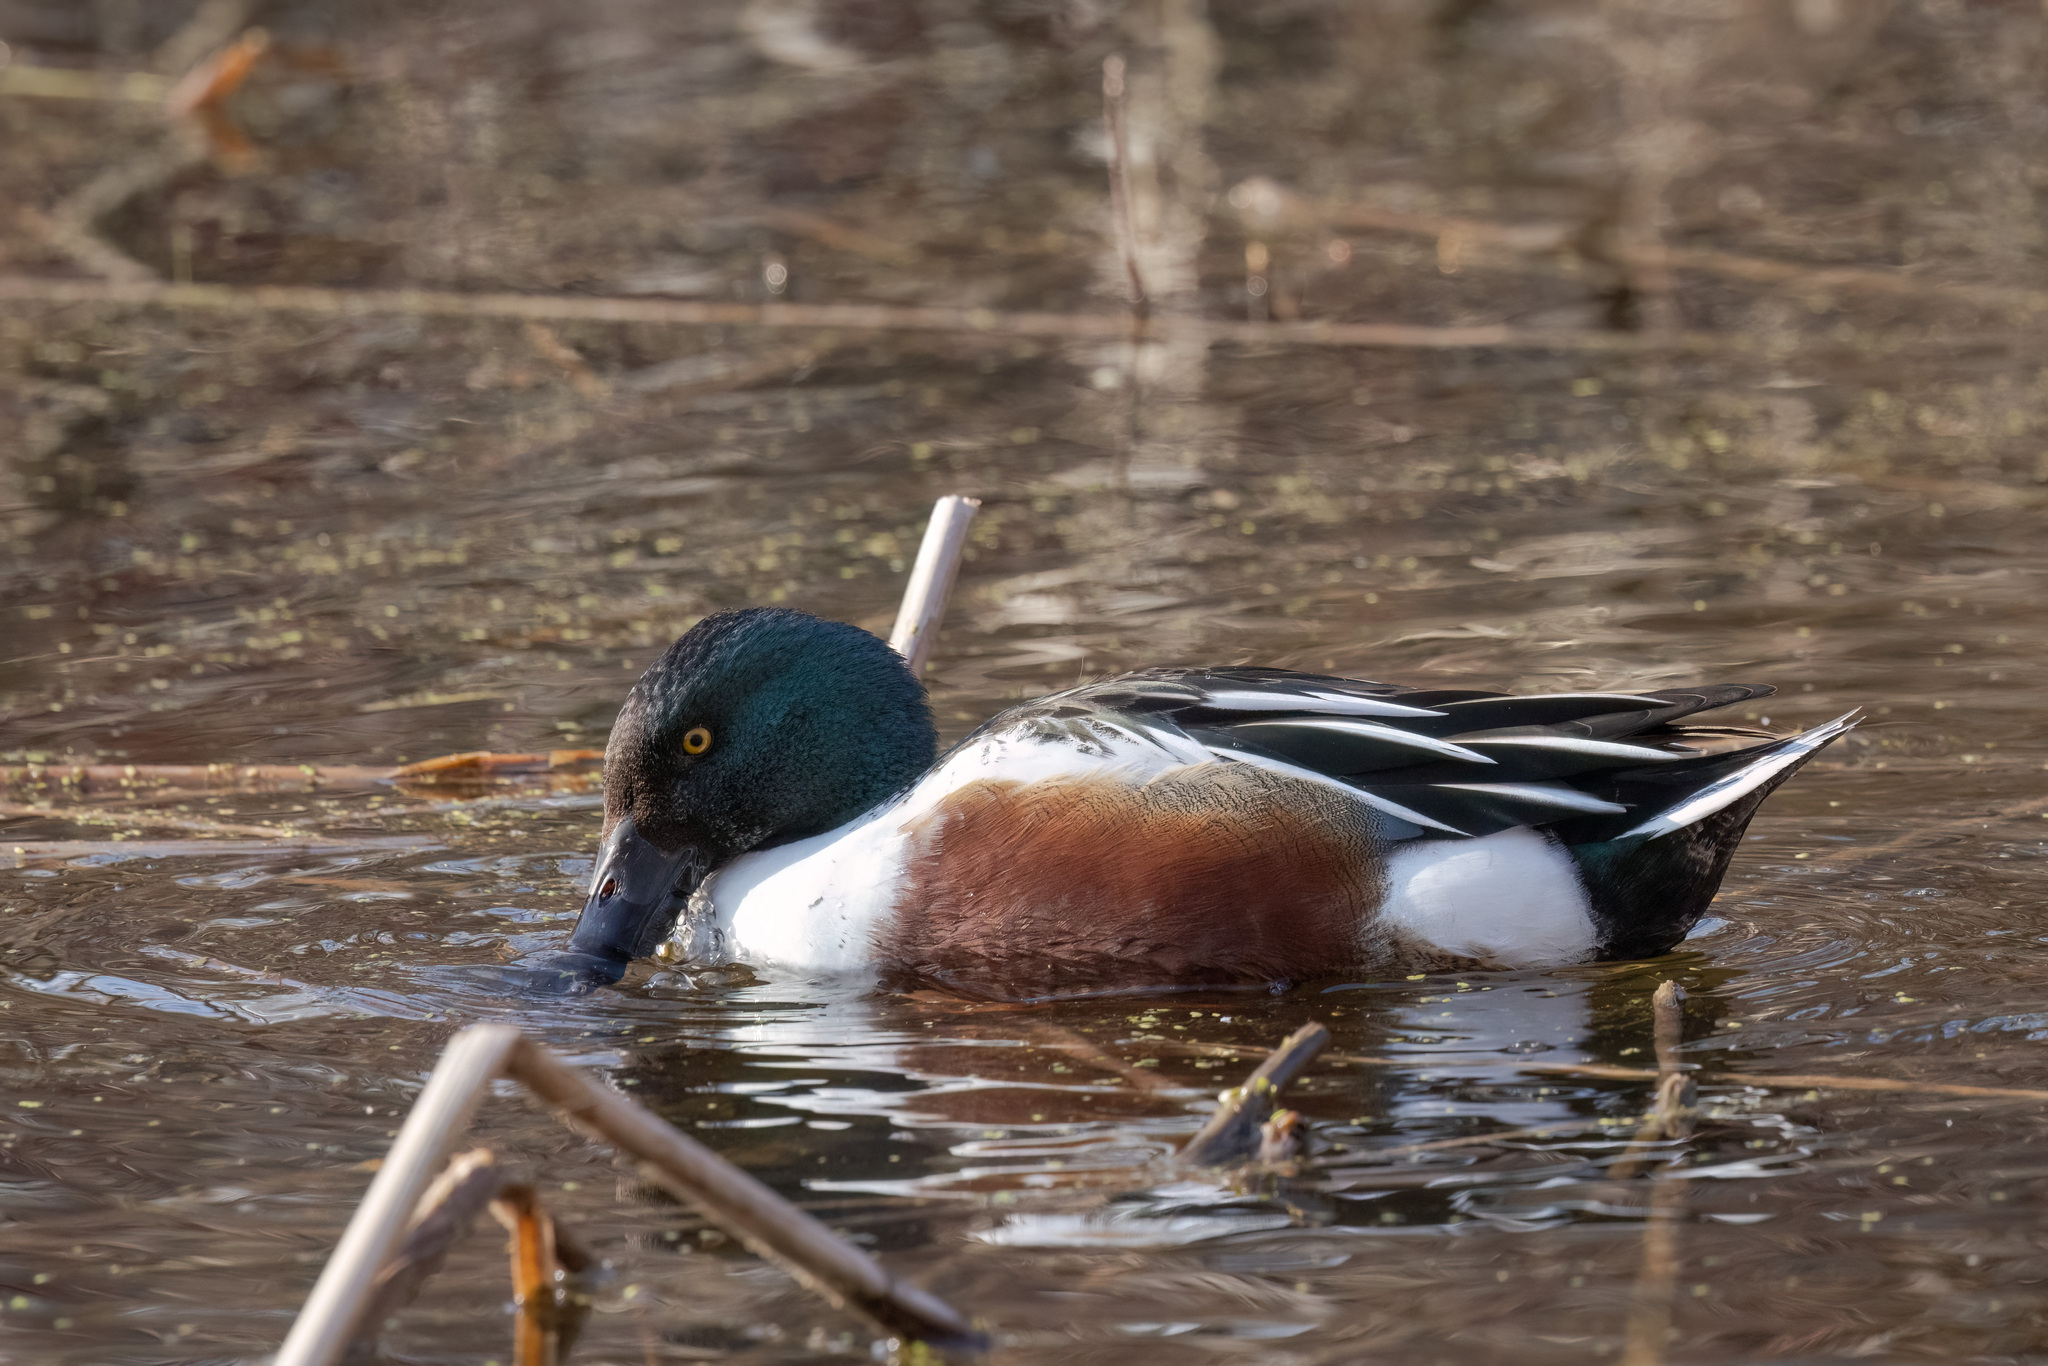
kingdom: Animalia
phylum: Chordata
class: Aves
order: Anseriformes
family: Anatidae
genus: Spatula
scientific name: Spatula clypeata
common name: Northern shoveler
